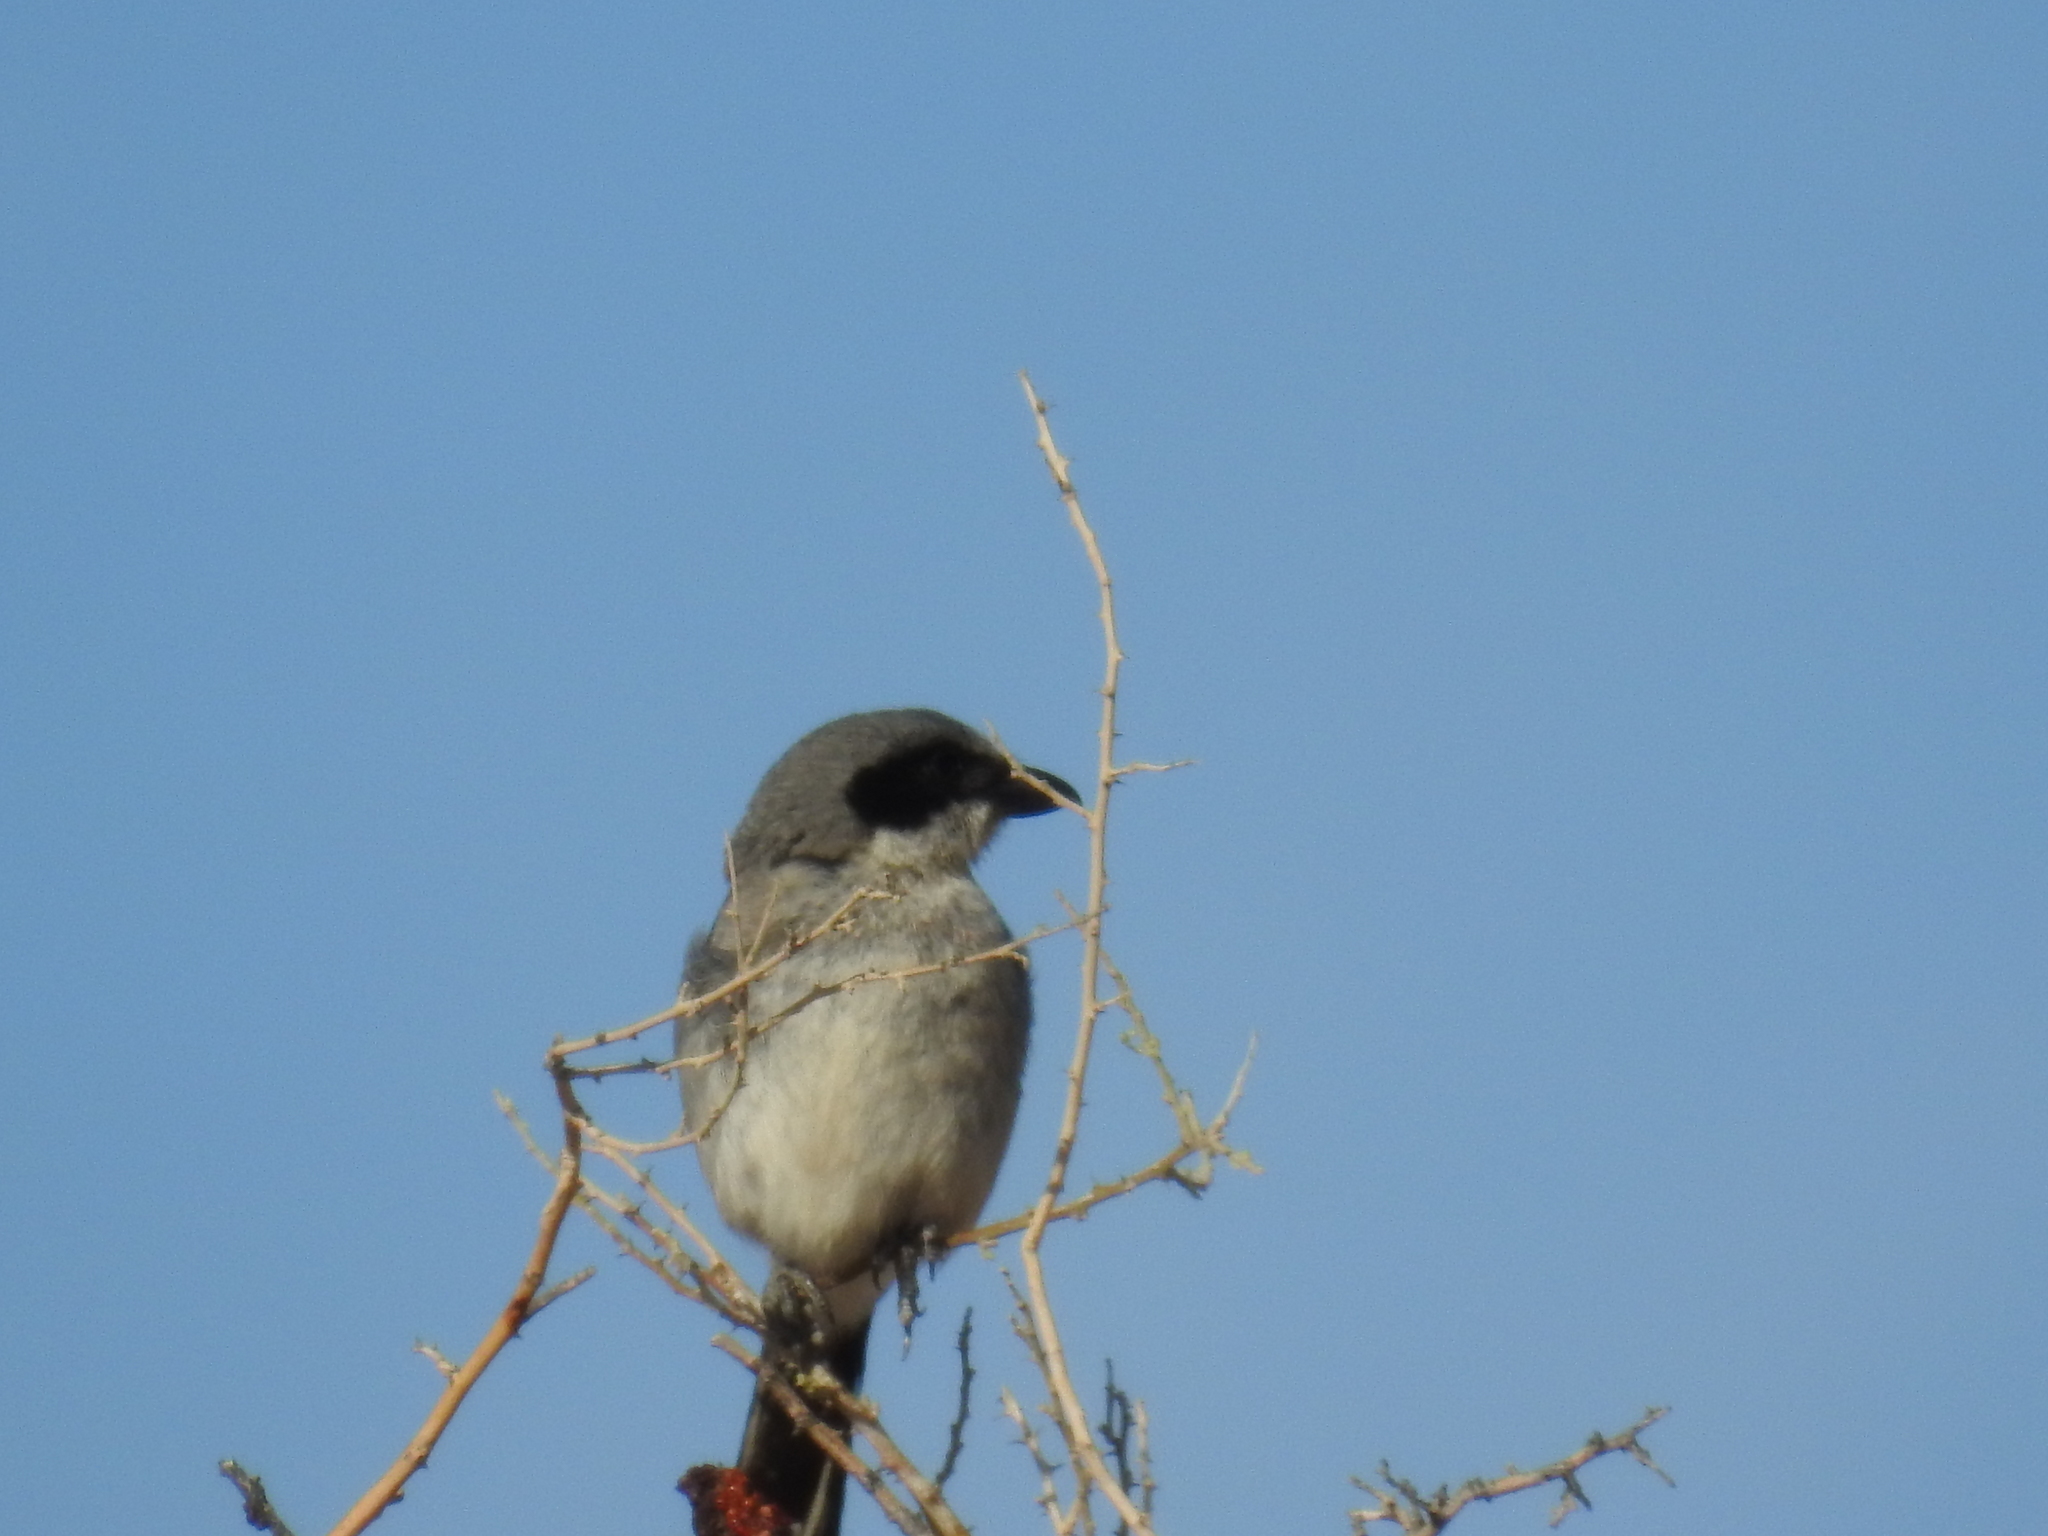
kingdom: Animalia
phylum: Chordata
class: Aves
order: Passeriformes
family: Laniidae
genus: Lanius
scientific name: Lanius ludovicianus
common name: Loggerhead shrike
